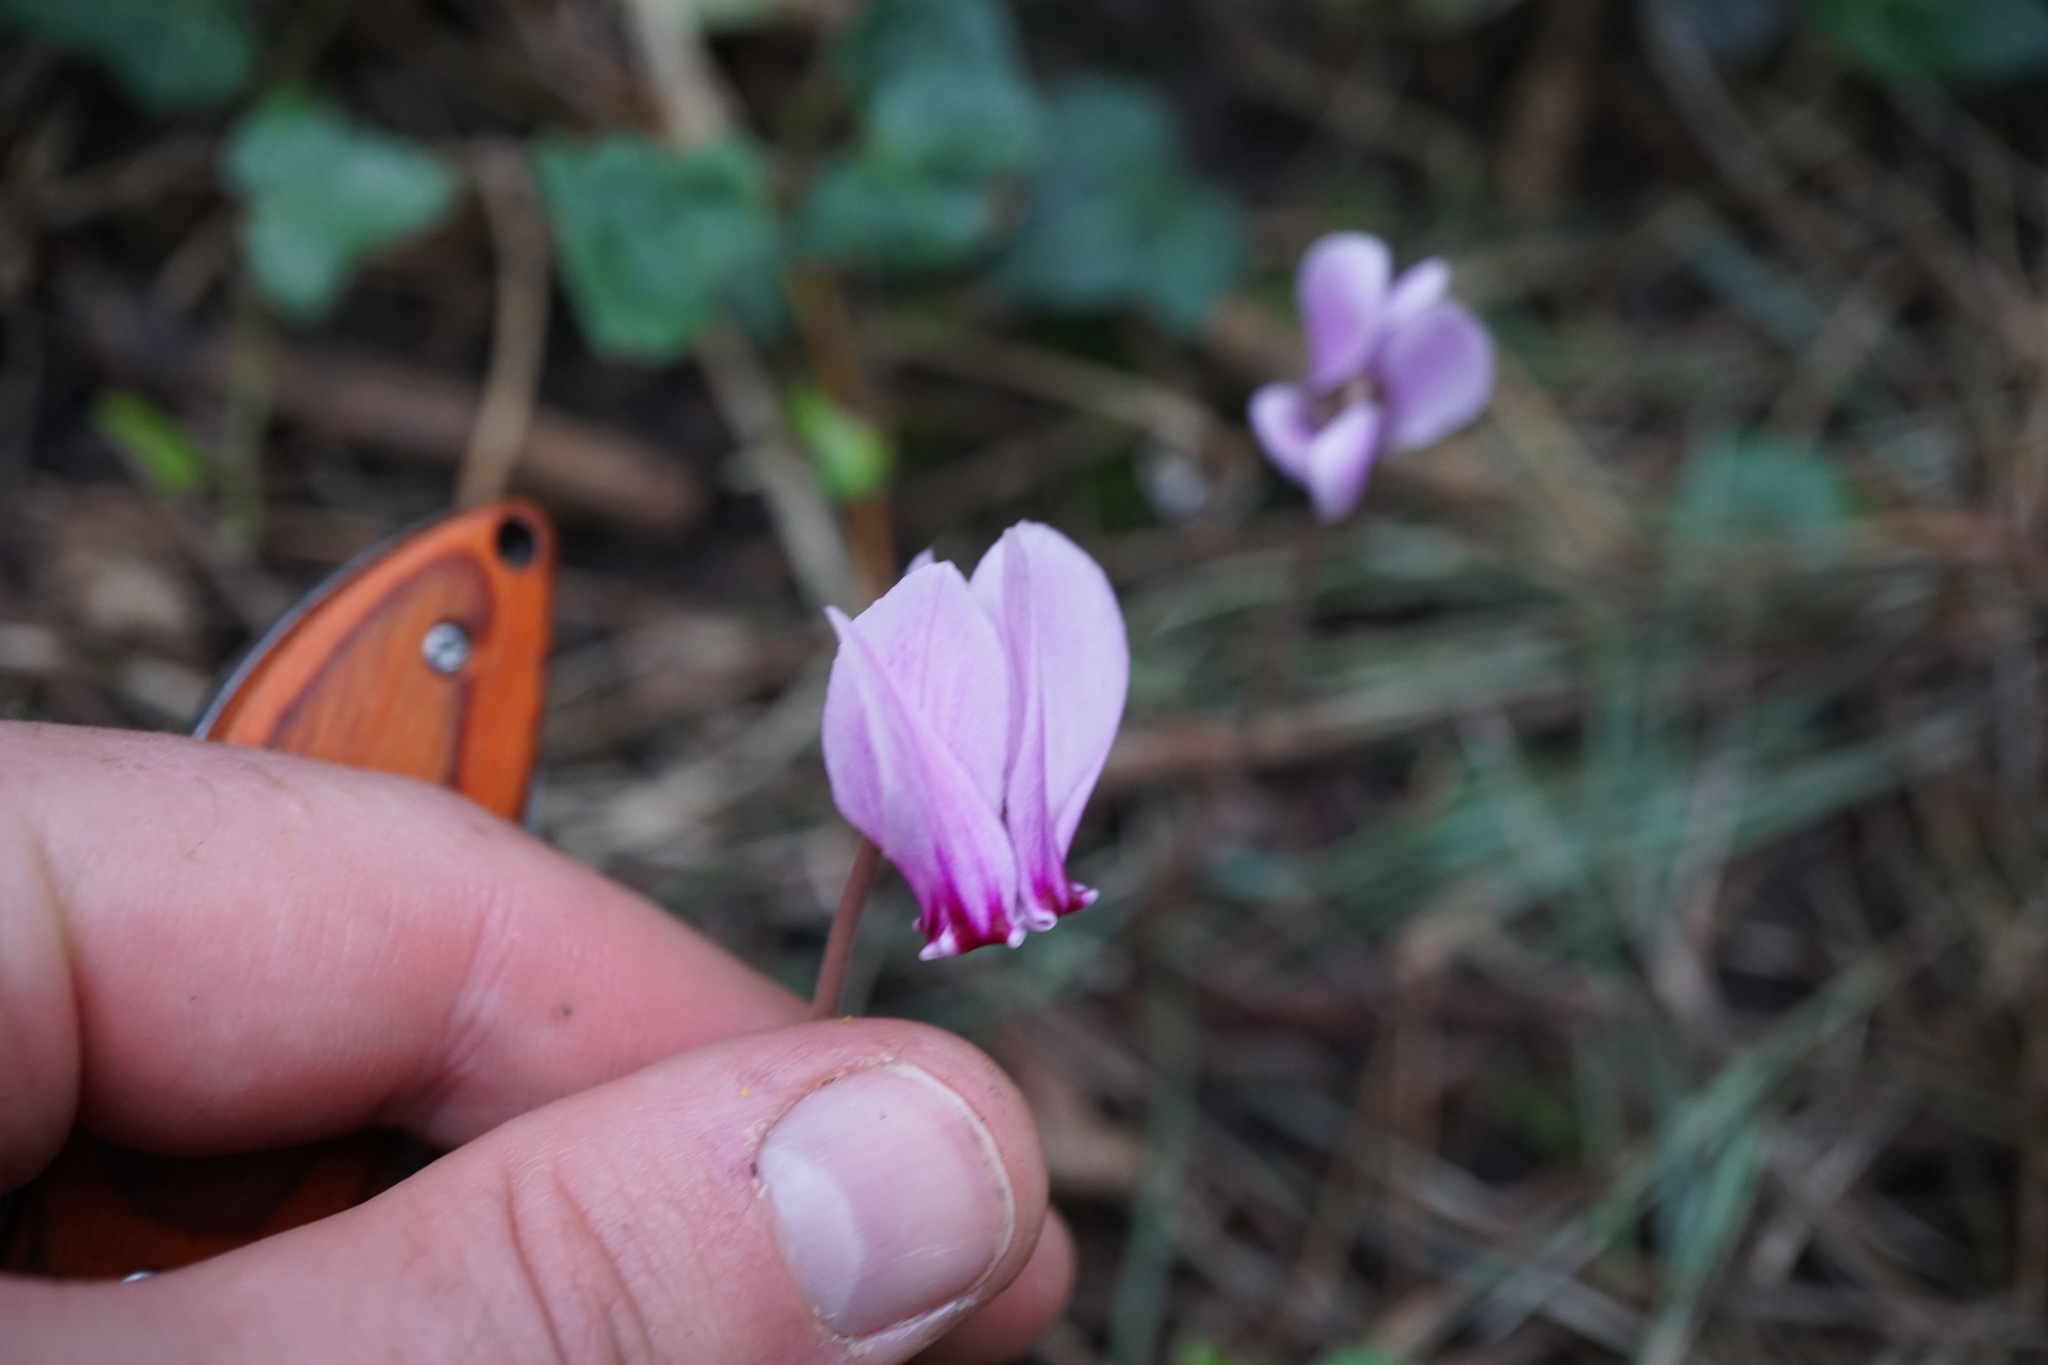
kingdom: Plantae
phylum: Tracheophyta
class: Magnoliopsida
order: Ericales
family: Primulaceae
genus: Cyclamen
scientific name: Cyclamen hederifolium
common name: Sowbread
